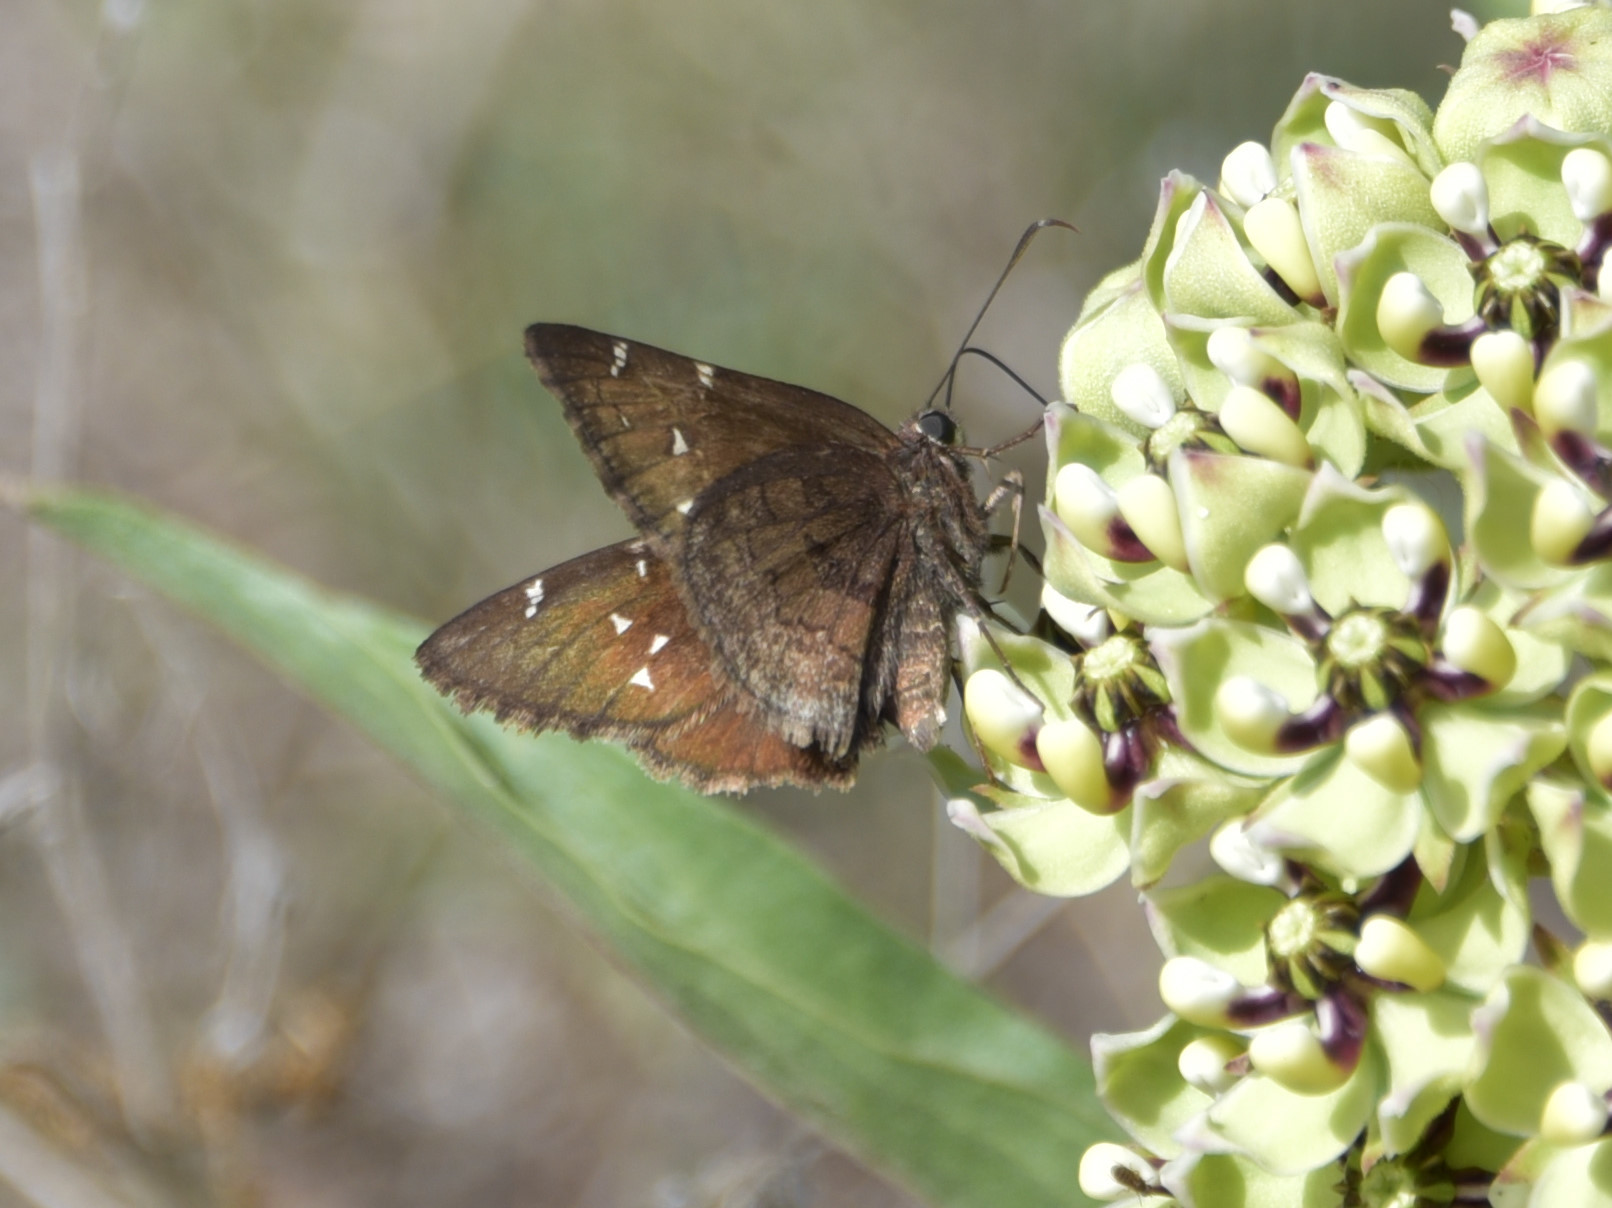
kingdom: Animalia
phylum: Arthropoda
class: Insecta
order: Lepidoptera
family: Hesperiidae
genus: Thorybes
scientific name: Thorybes pylades
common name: Northern cloudywing
